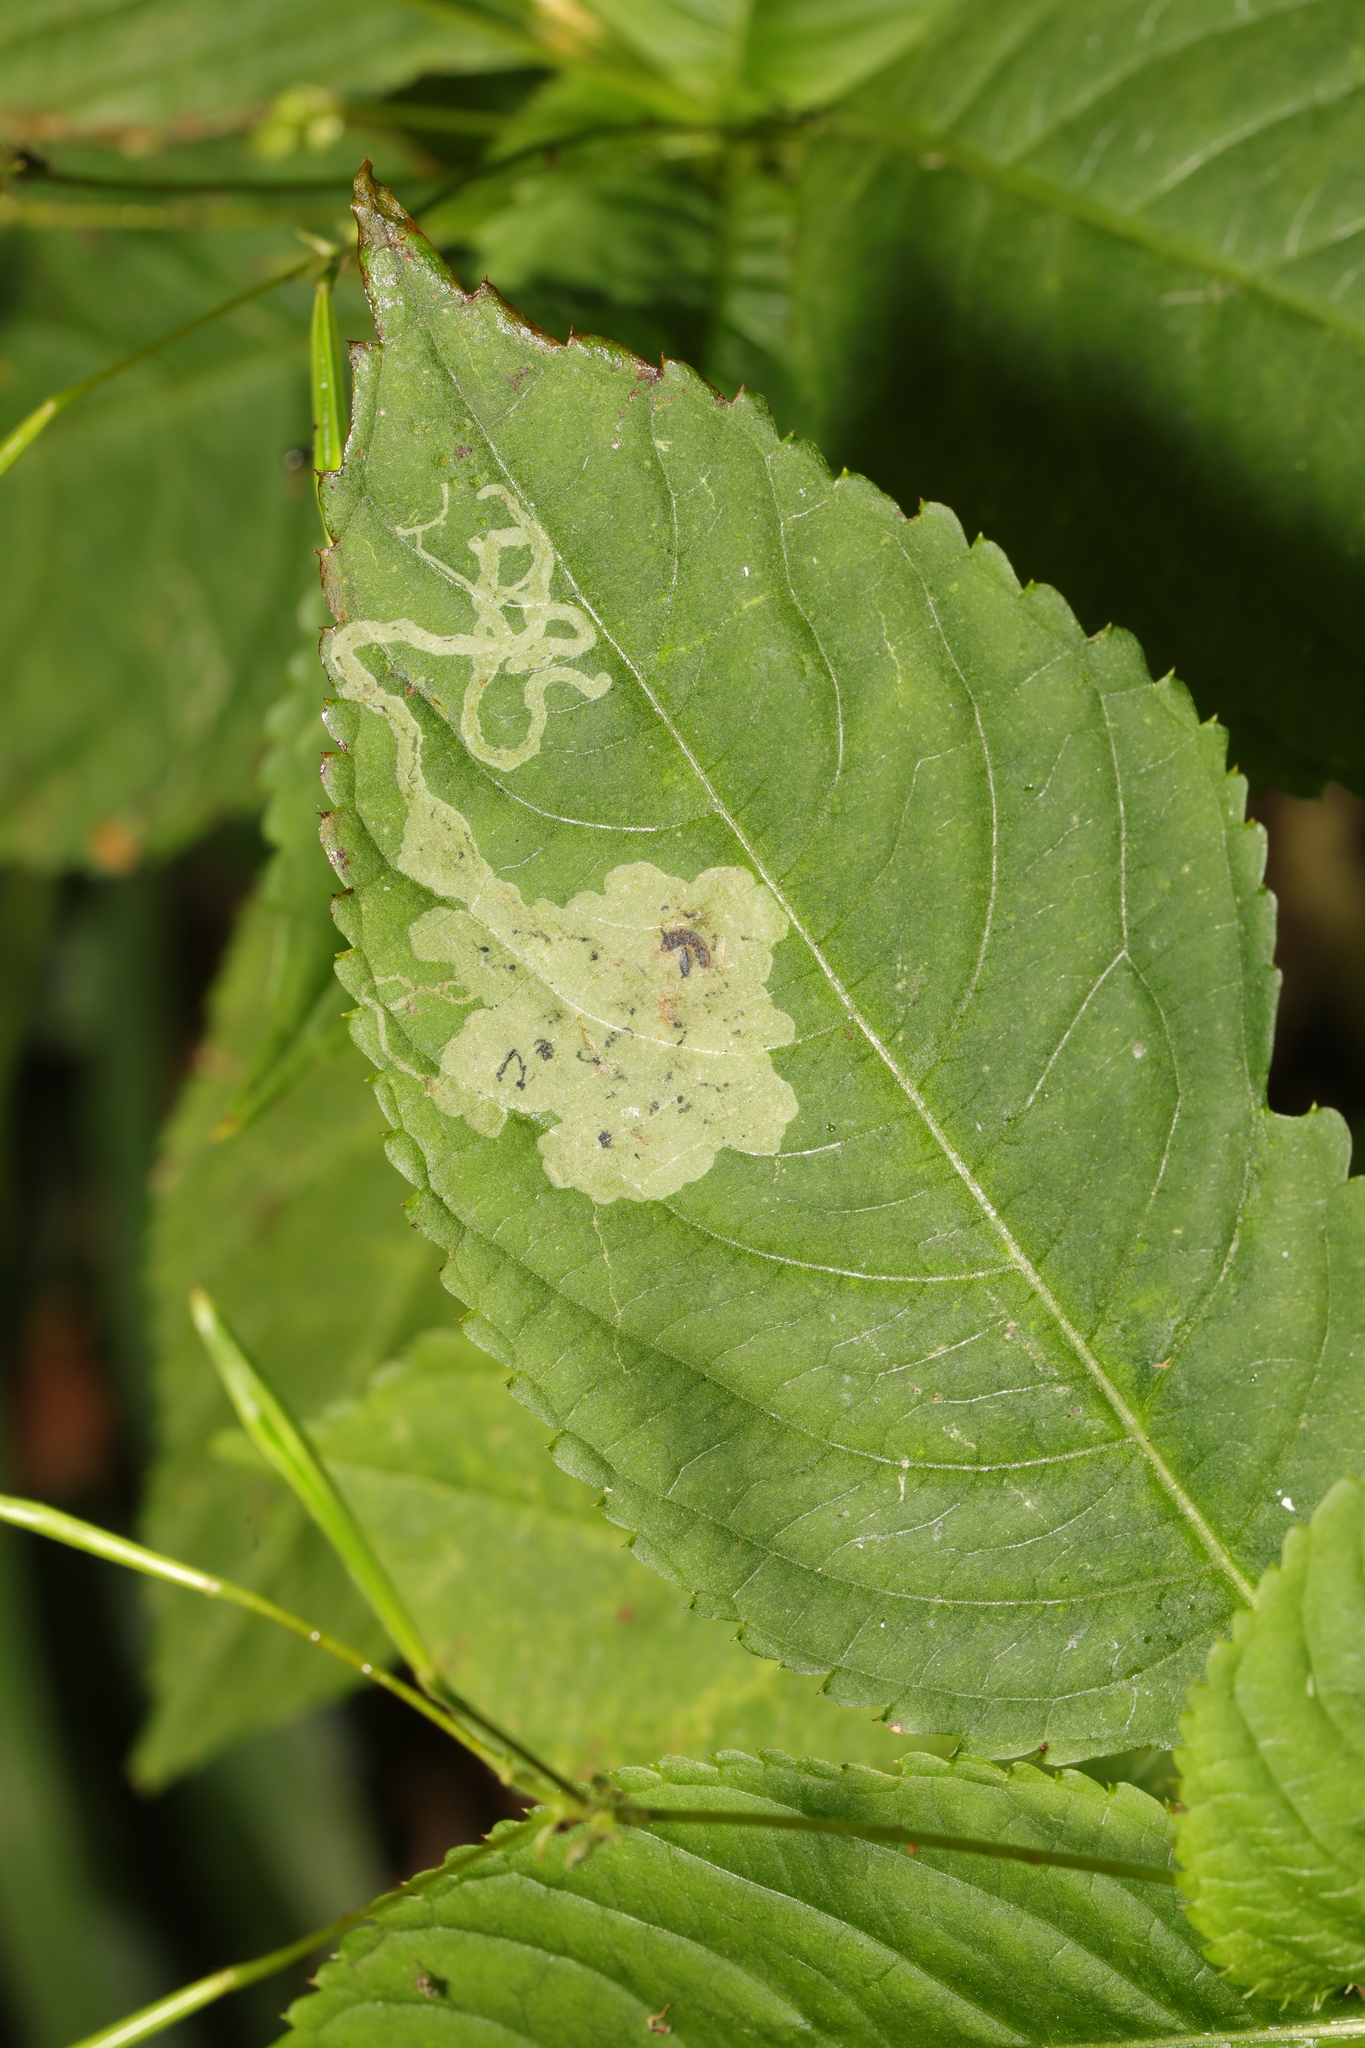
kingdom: Animalia
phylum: Arthropoda
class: Insecta
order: Diptera
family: Agromyzidae
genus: Phytoliriomyza
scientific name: Phytoliriomyza melampyga
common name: Jewelweed leaf-miner fly
